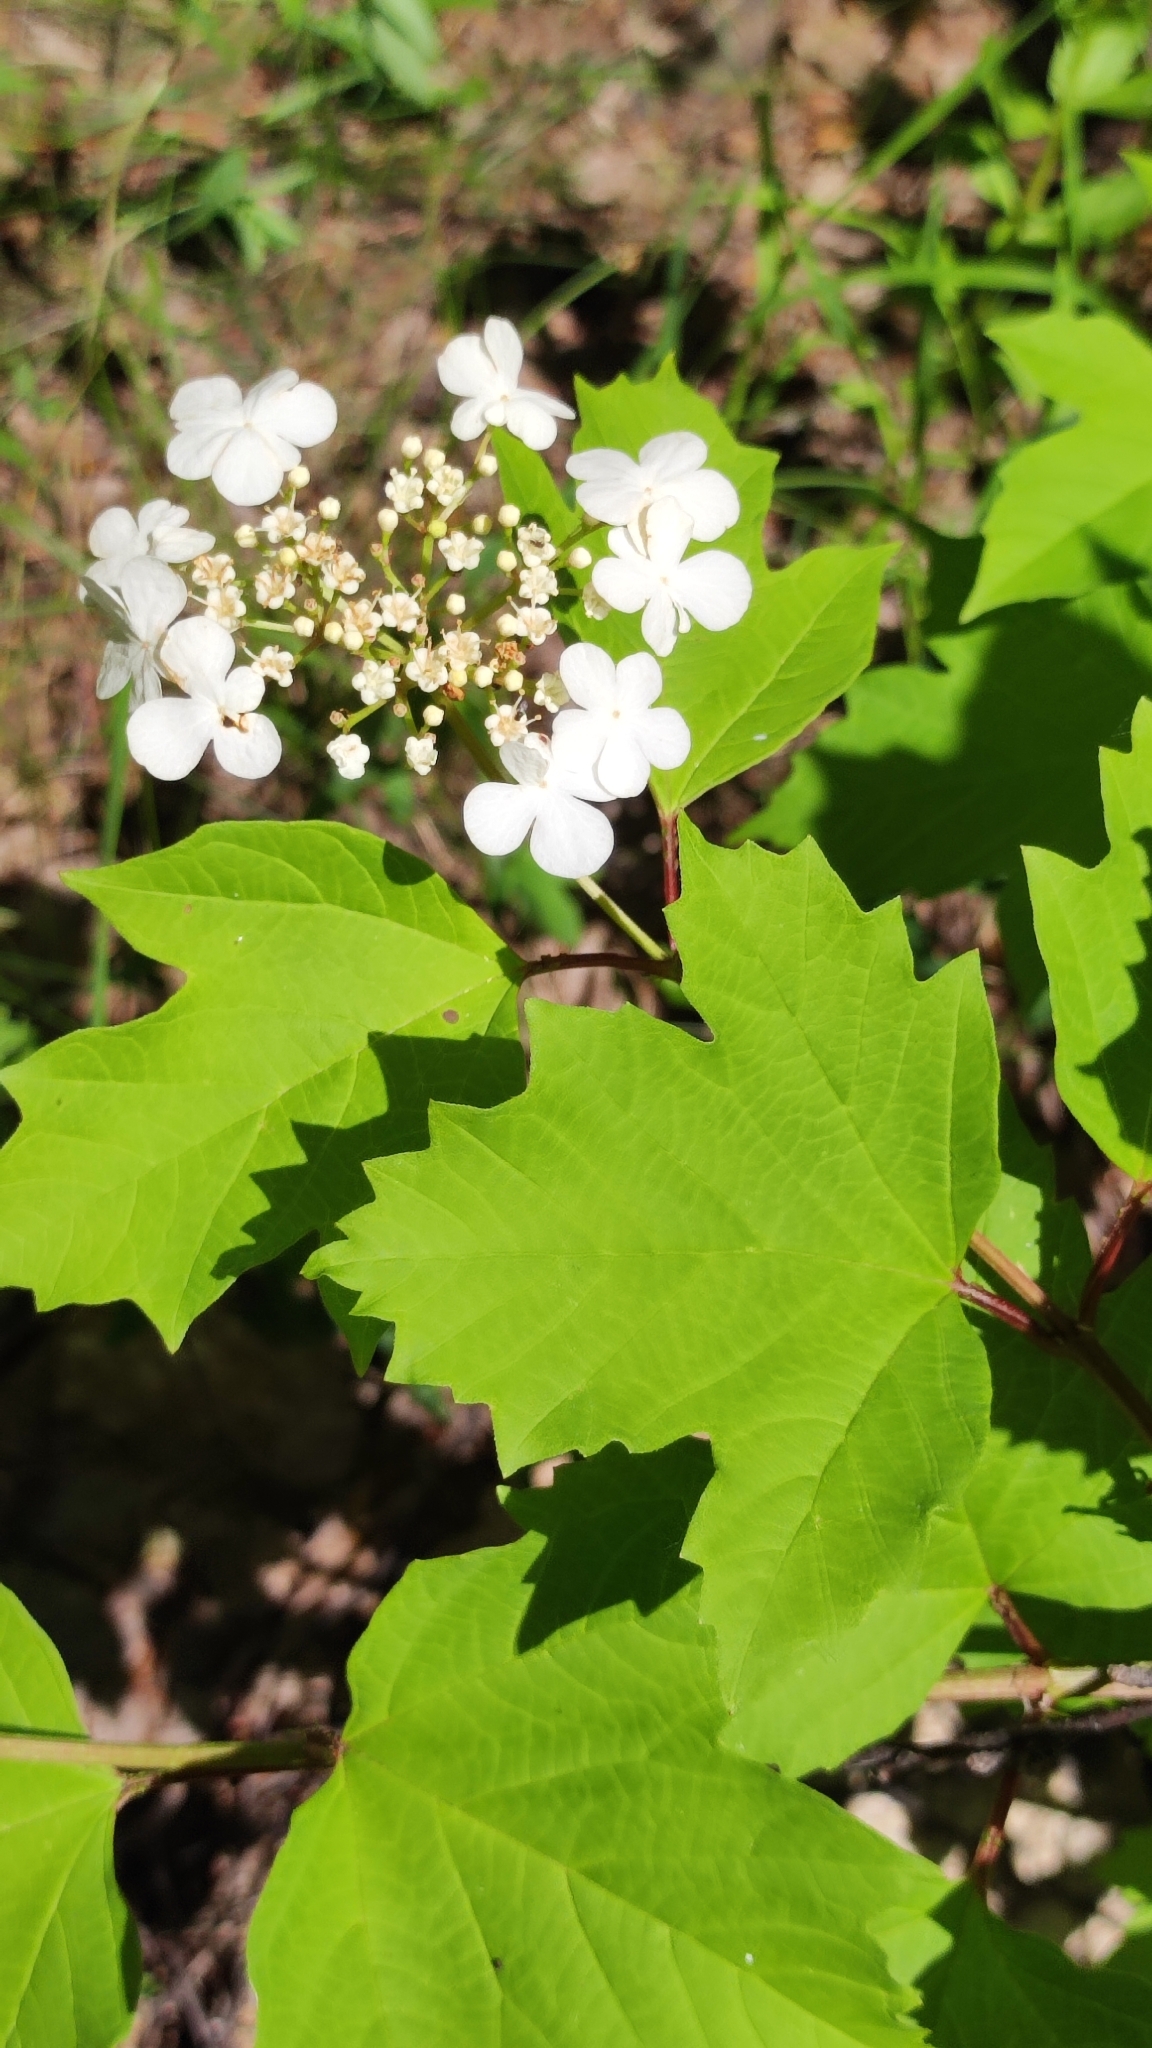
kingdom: Plantae
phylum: Tracheophyta
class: Magnoliopsida
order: Dipsacales
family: Viburnaceae
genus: Viburnum
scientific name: Viburnum opulus
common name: Guelder-rose
